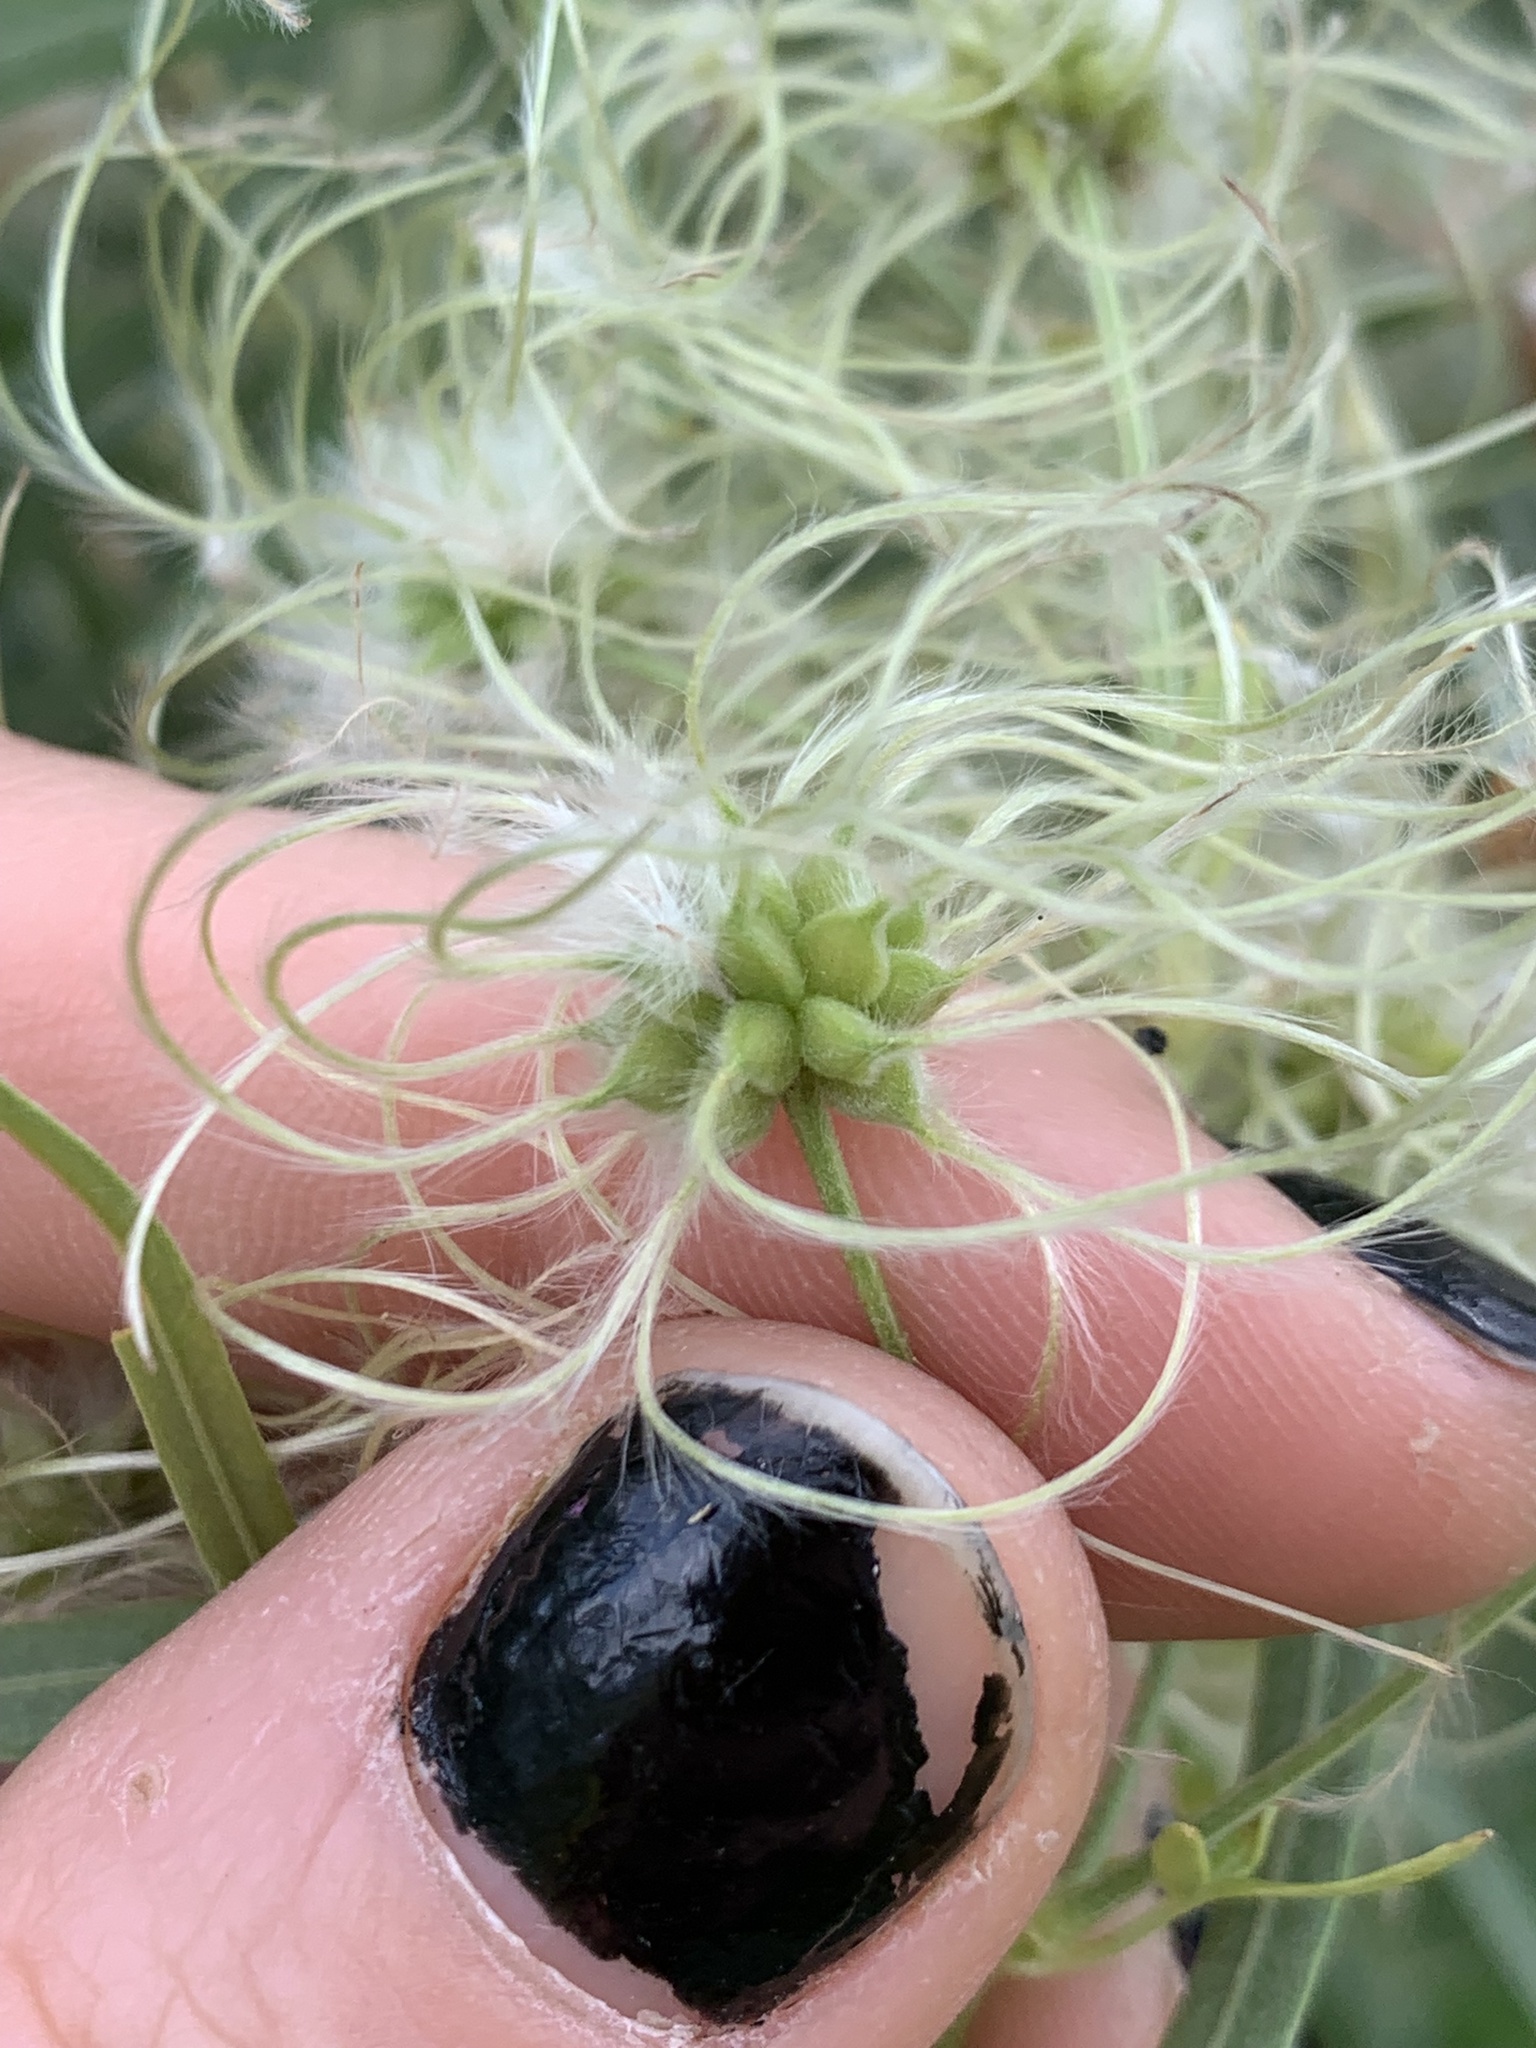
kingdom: Plantae
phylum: Tracheophyta
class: Magnoliopsida
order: Ranunculales
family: Ranunculaceae
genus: Clematis
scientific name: Clematis ligusticifolia
